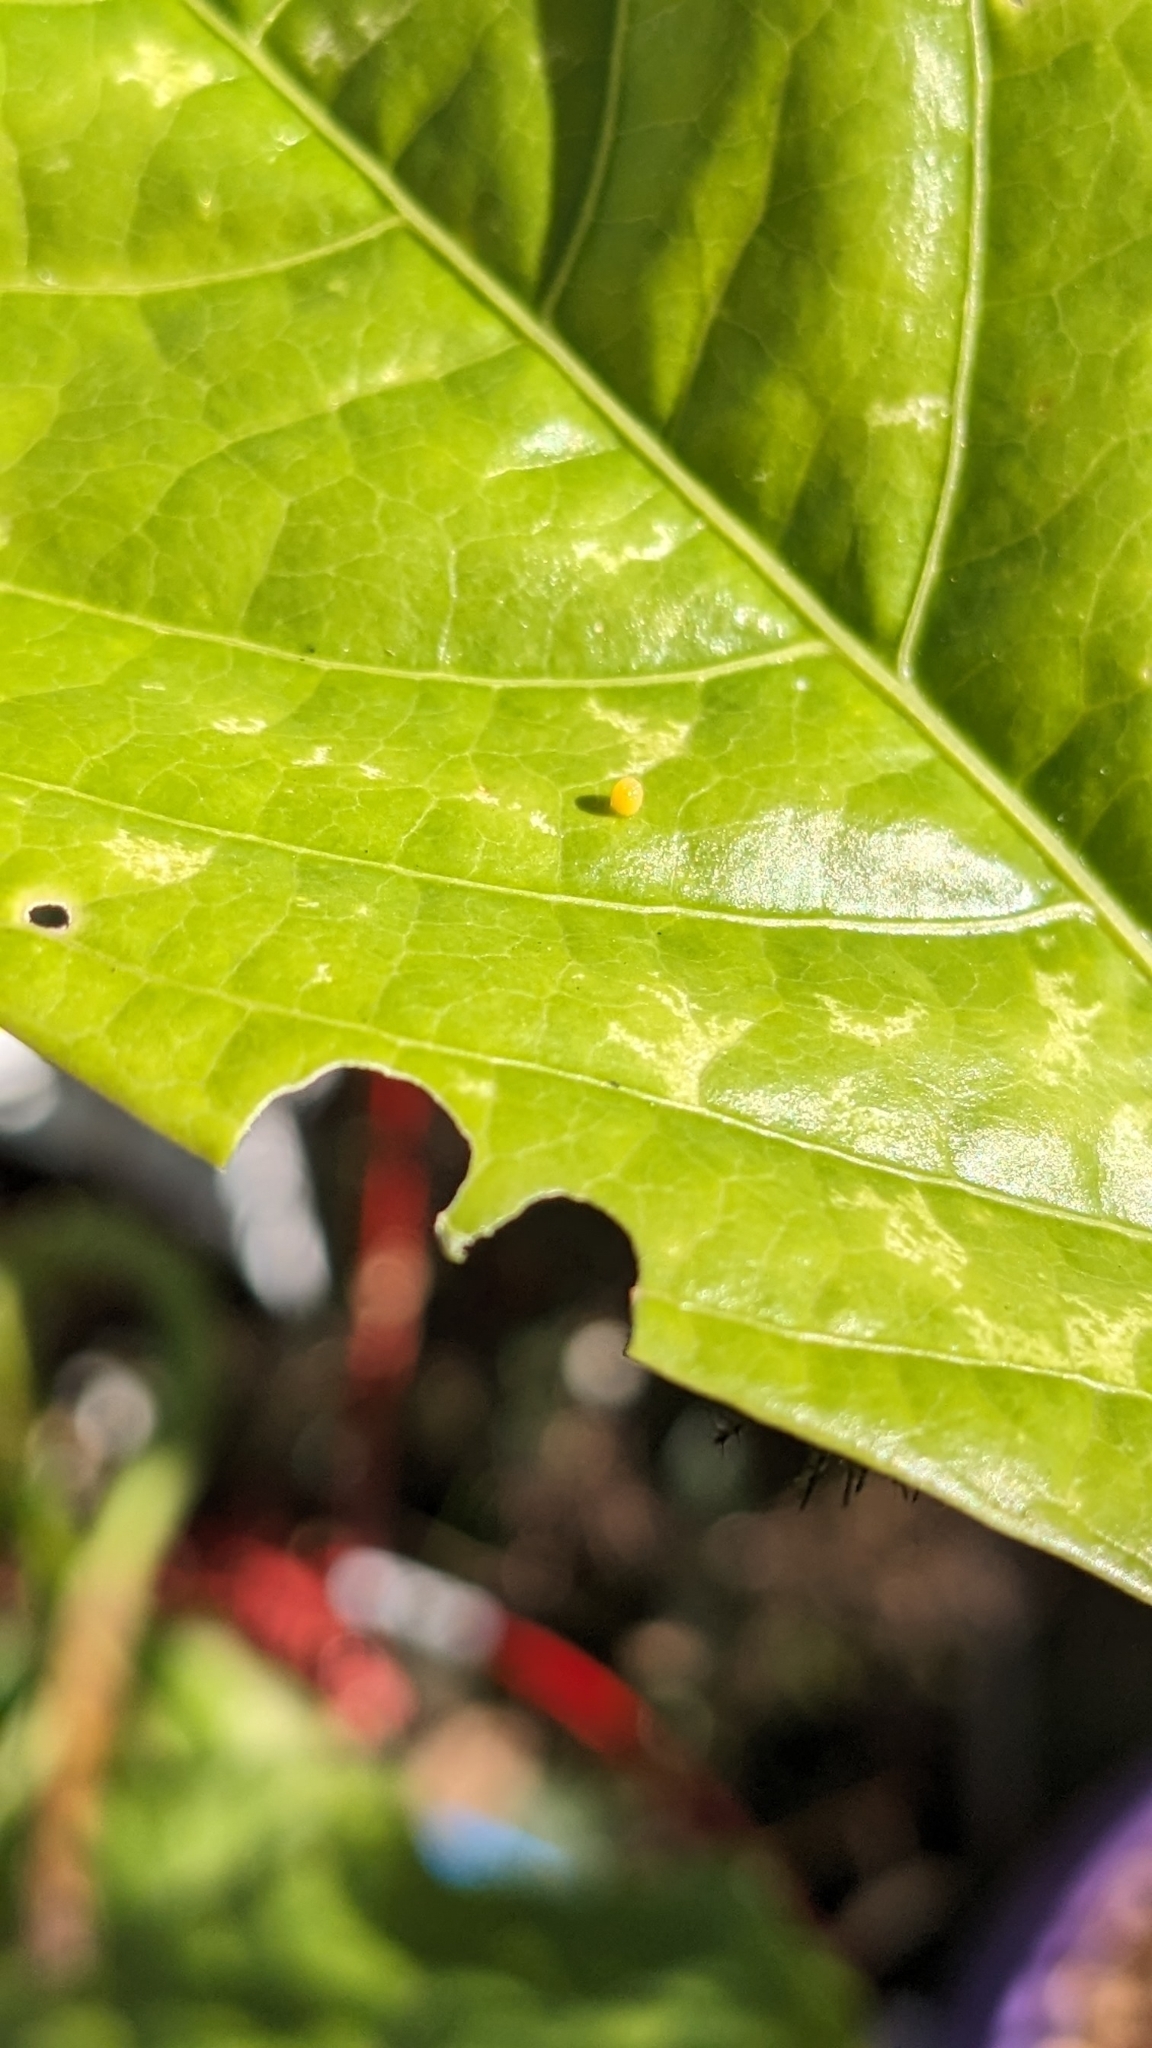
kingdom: Animalia
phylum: Arthropoda
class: Insecta
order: Lepidoptera
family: Nymphalidae
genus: Dione
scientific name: Dione vanillae
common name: Gulf fritillary
